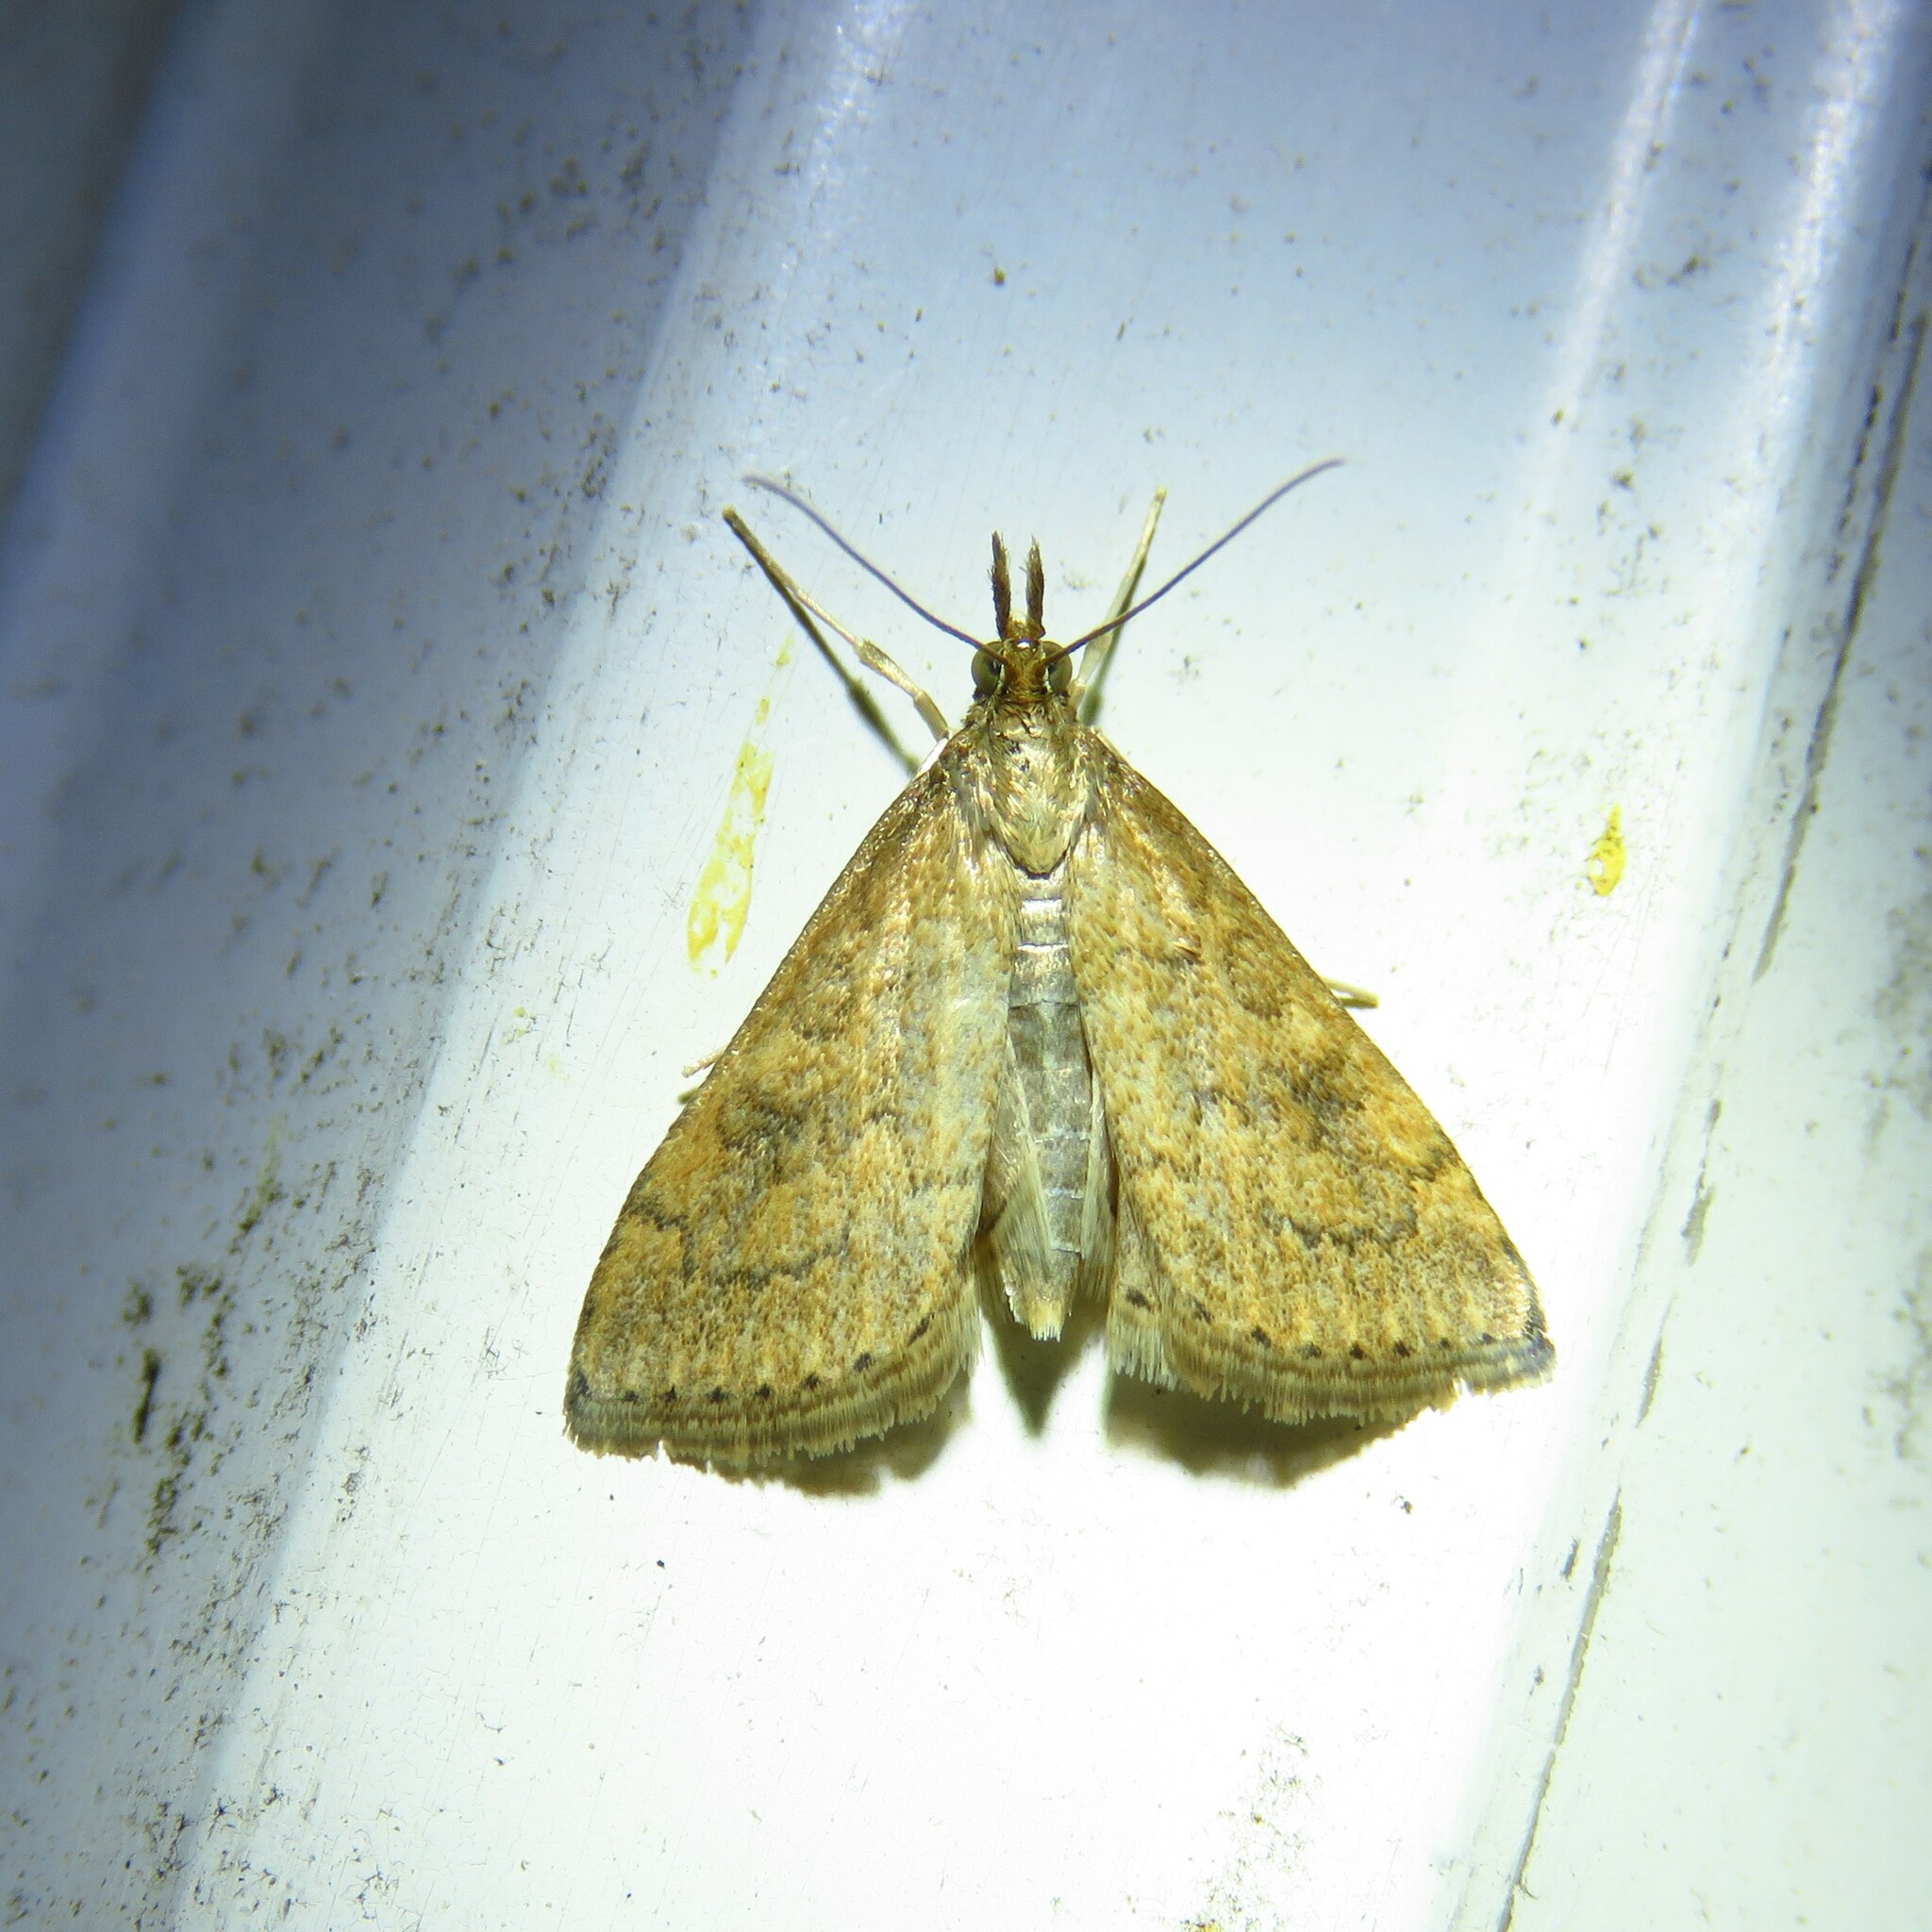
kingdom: Animalia
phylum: Arthropoda
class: Insecta
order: Lepidoptera
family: Crambidae
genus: Udea
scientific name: Udea rubigalis
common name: Celery leaftier moth
